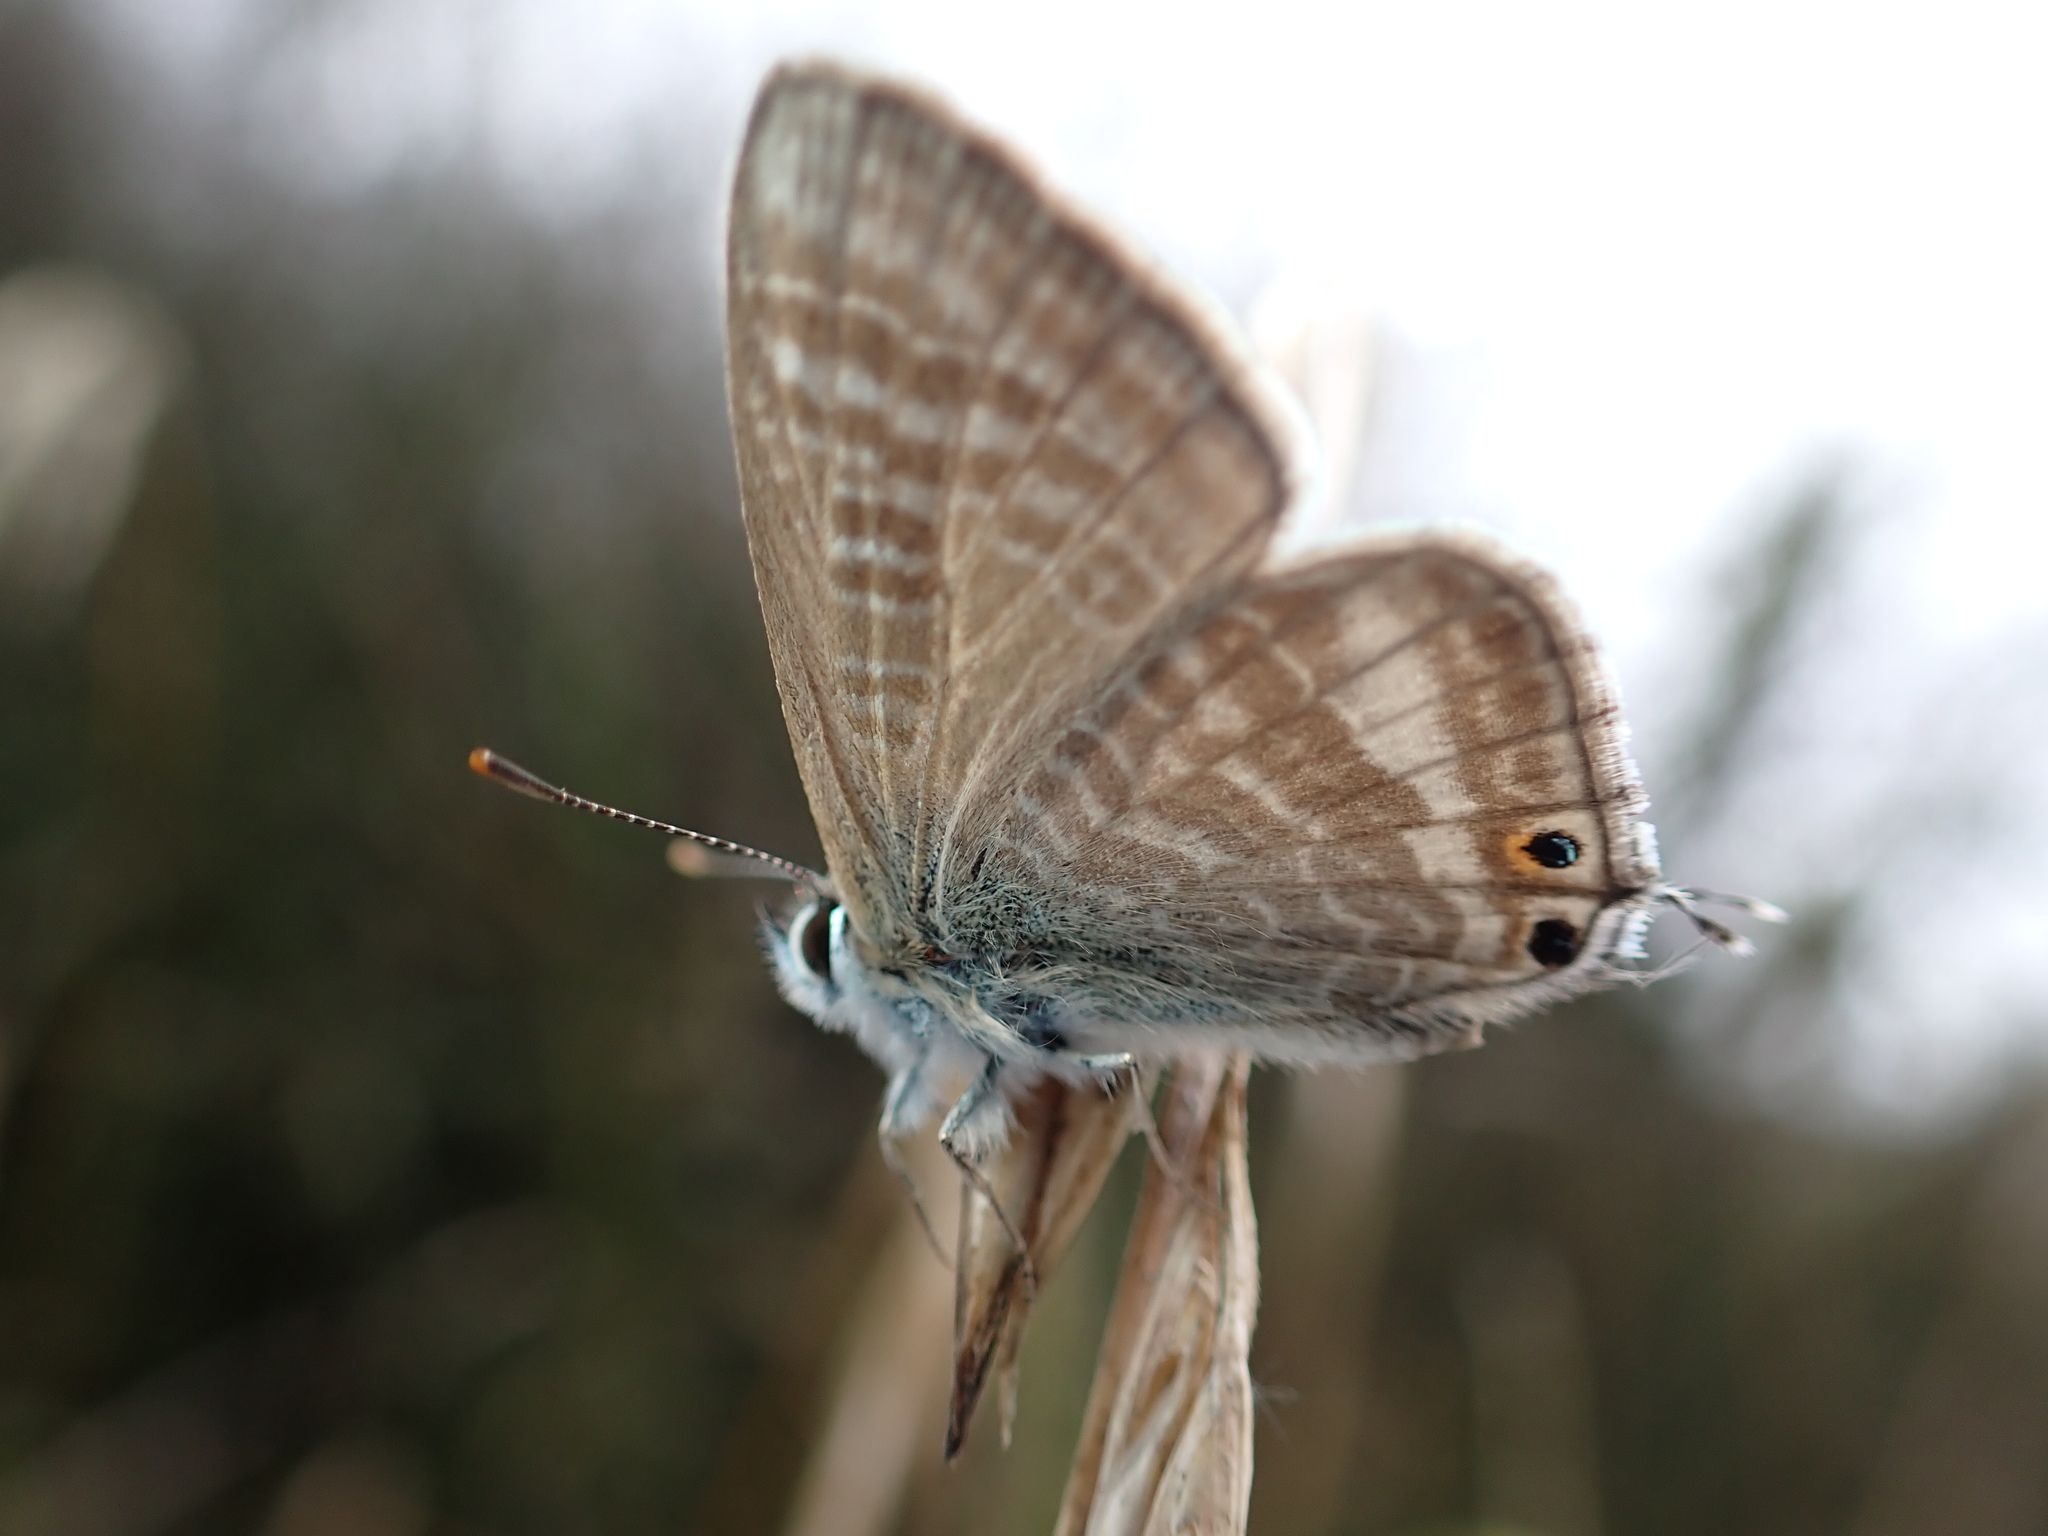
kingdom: Animalia
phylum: Arthropoda
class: Insecta
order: Lepidoptera
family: Lycaenidae
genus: Lampides
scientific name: Lampides boeticus
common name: Long-tailed blue
